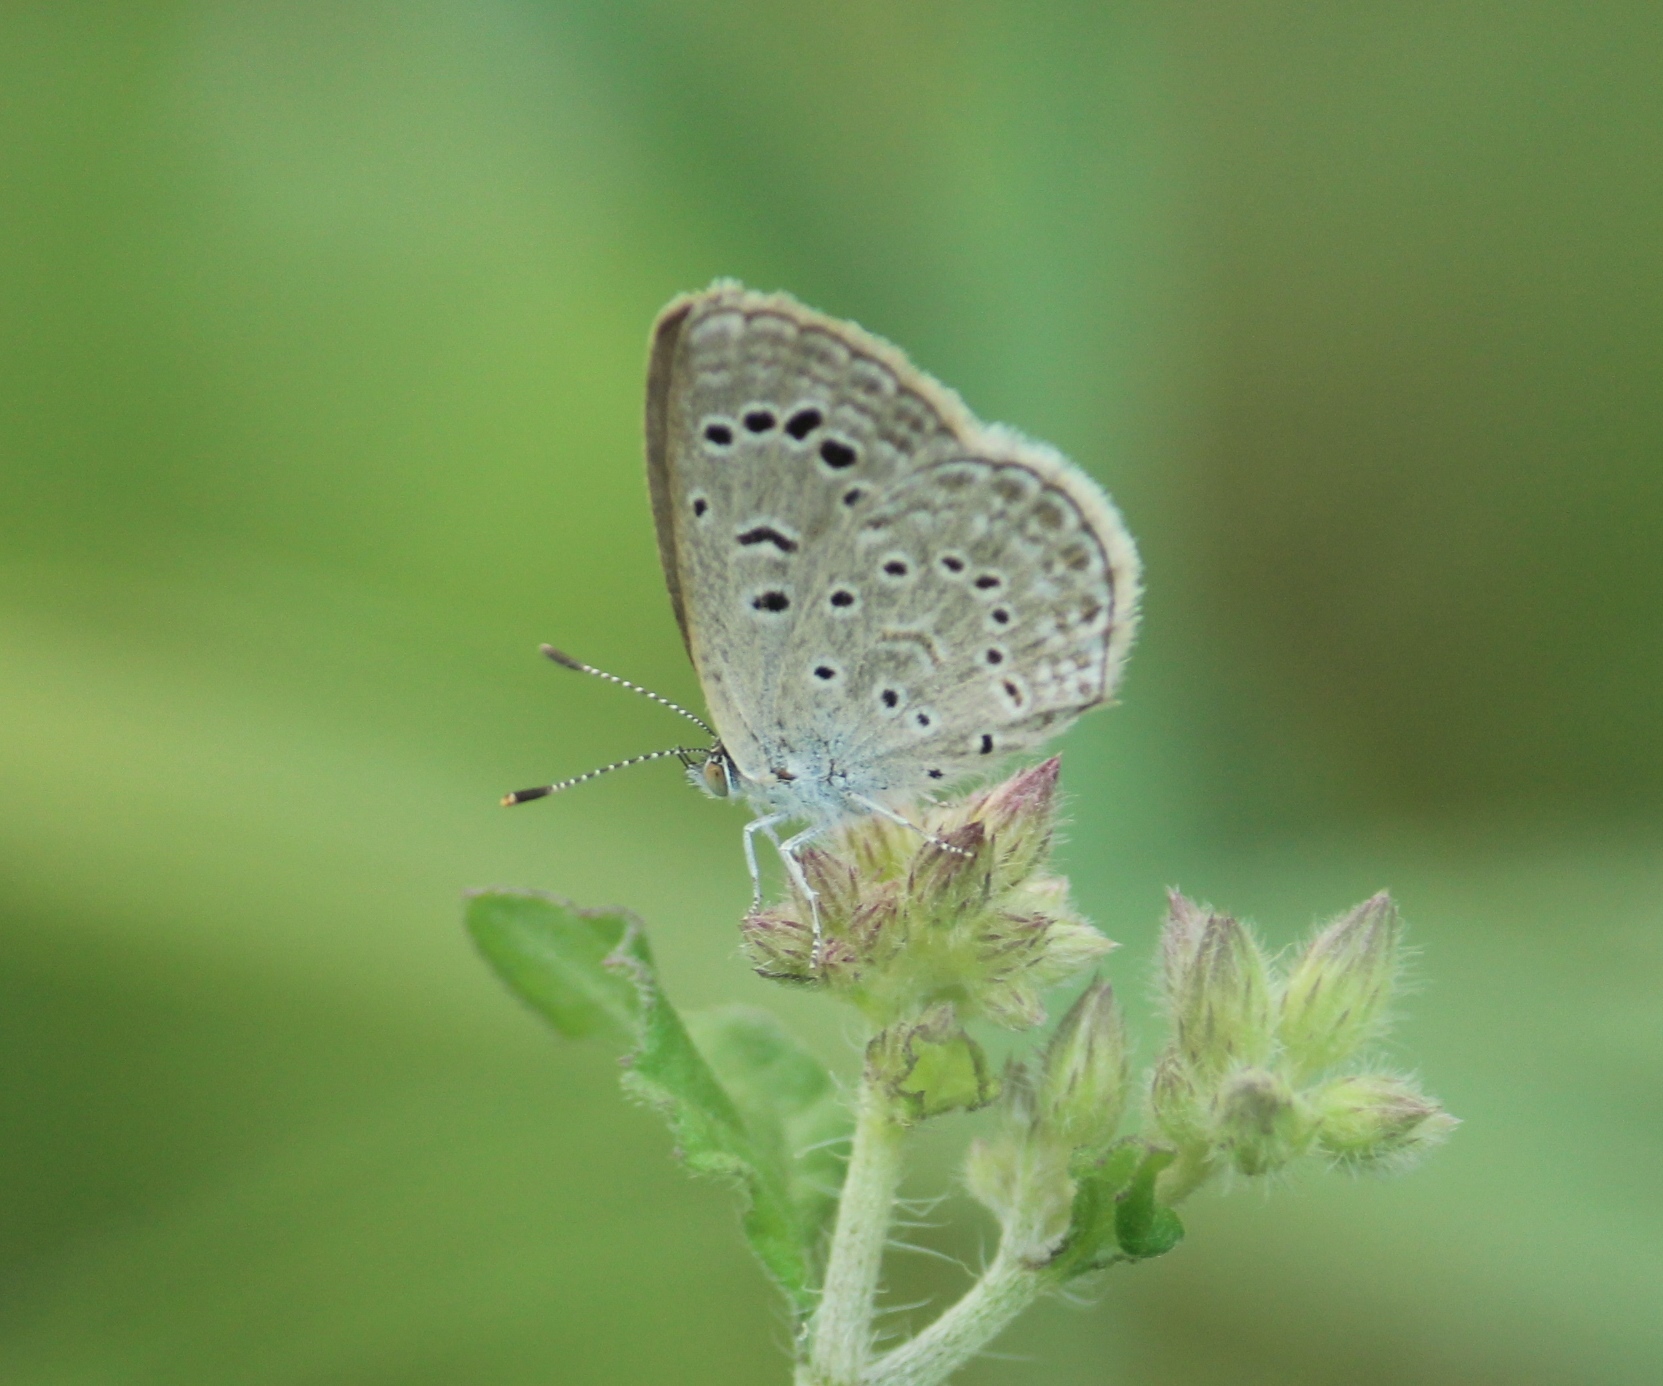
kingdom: Animalia
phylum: Arthropoda
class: Insecta
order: Lepidoptera
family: Lycaenidae
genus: Zizeeria
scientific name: Zizeeria karsandra
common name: Dark grass blue
